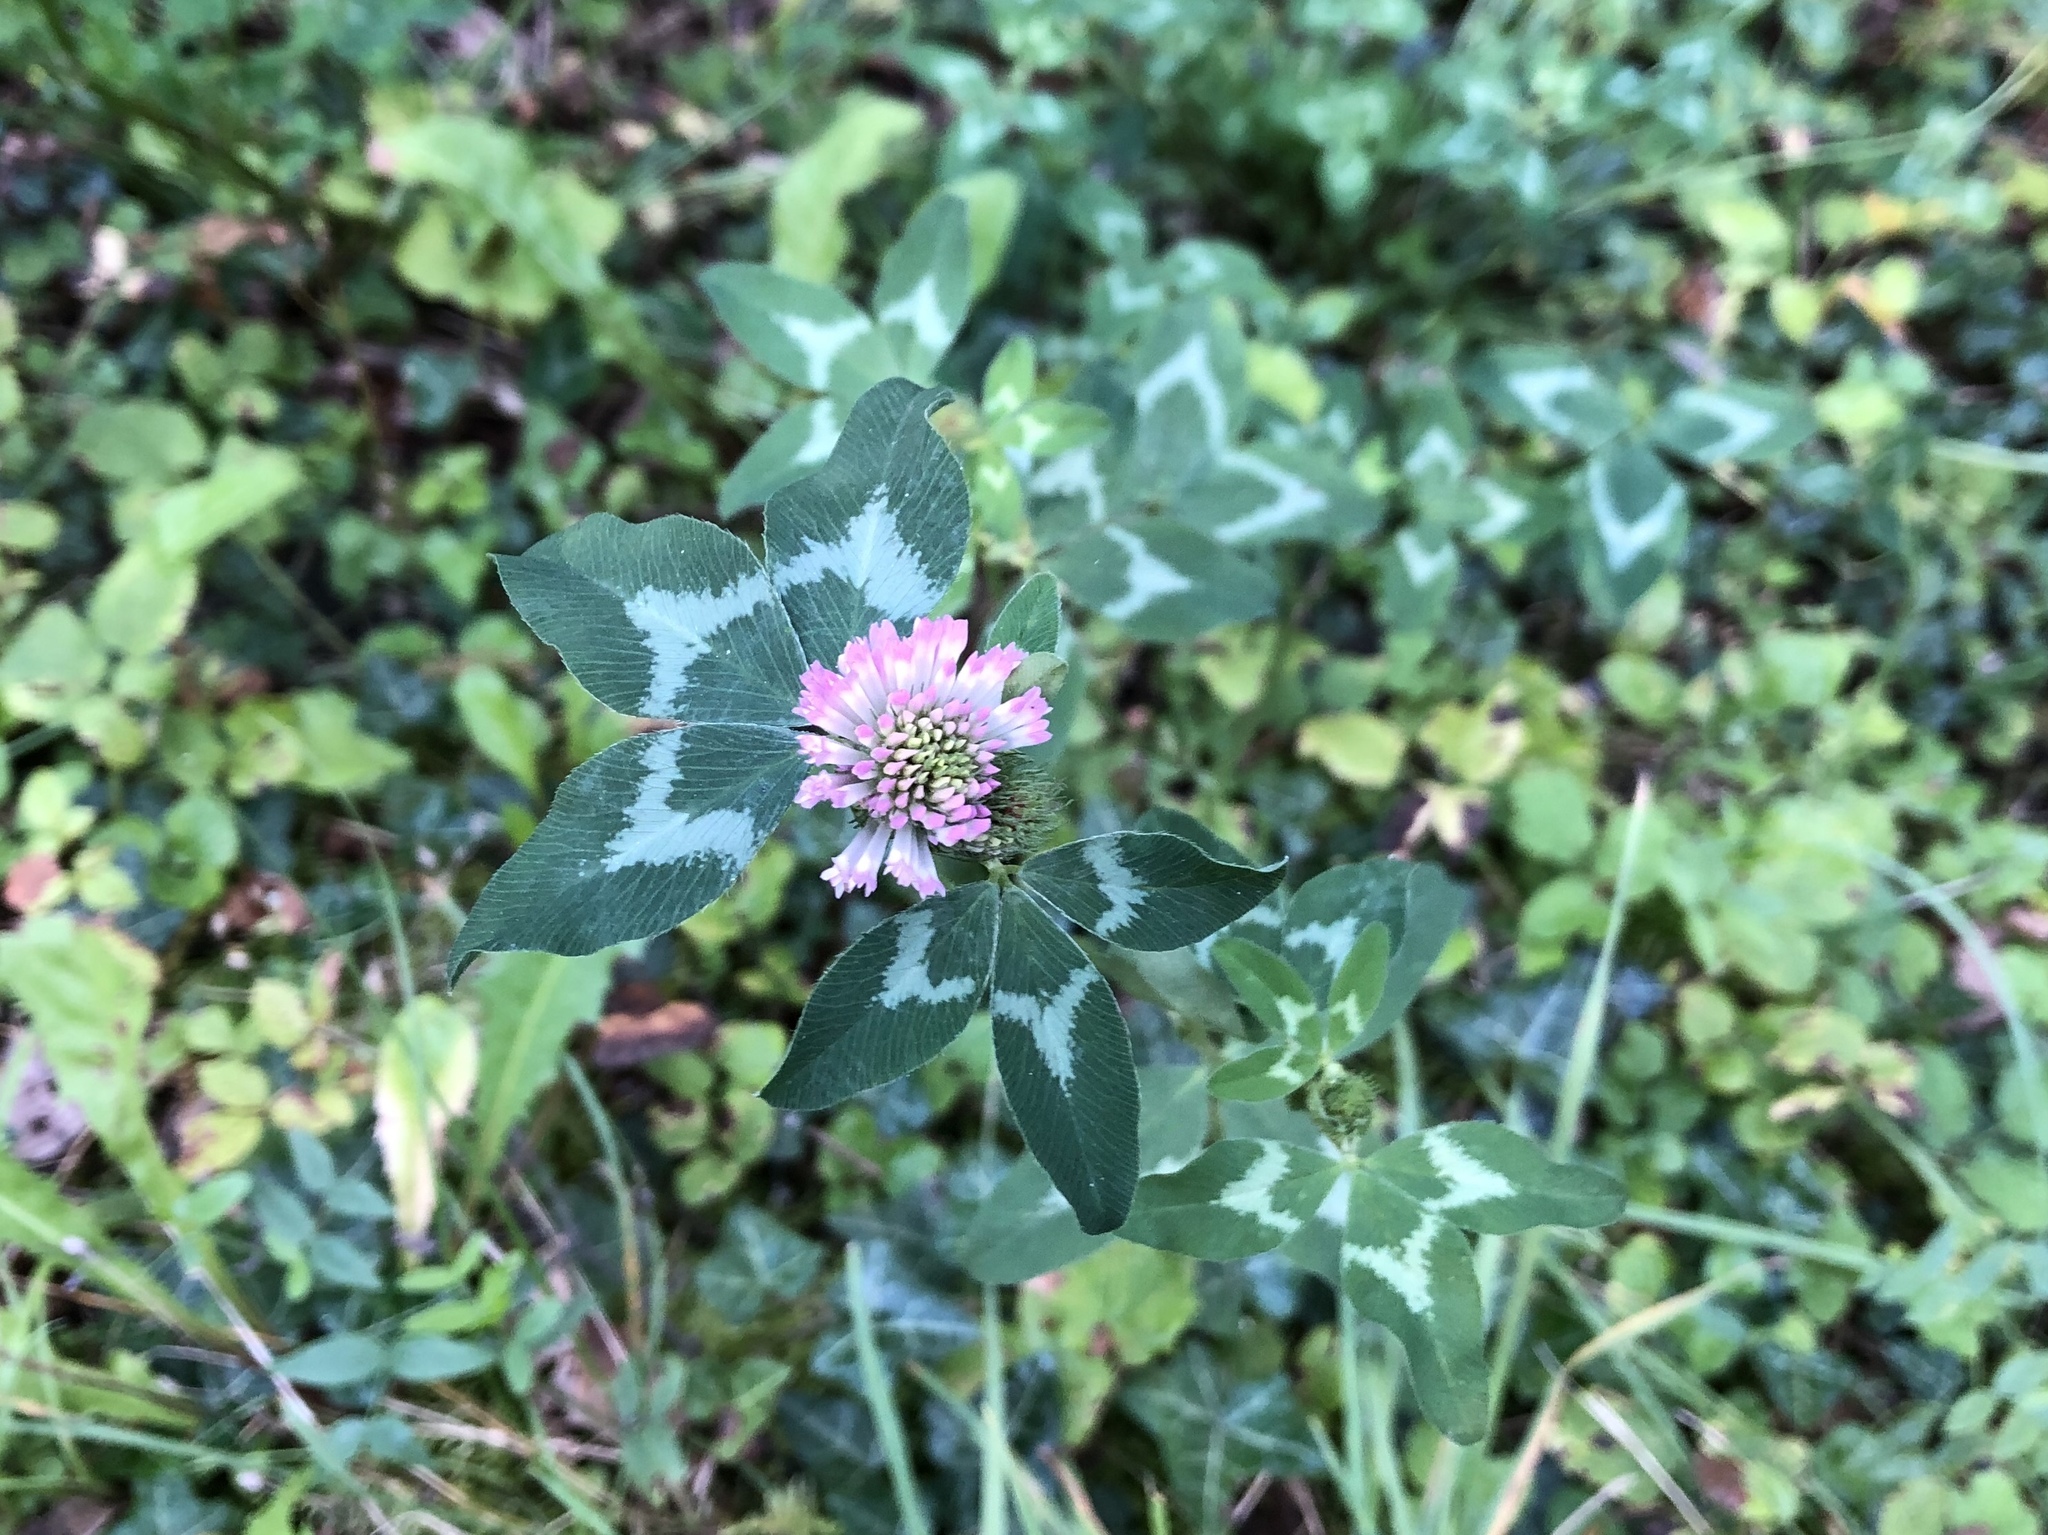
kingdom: Plantae
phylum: Tracheophyta
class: Magnoliopsida
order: Fabales
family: Fabaceae
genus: Trifolium
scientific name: Trifolium pratense
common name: Red clover
